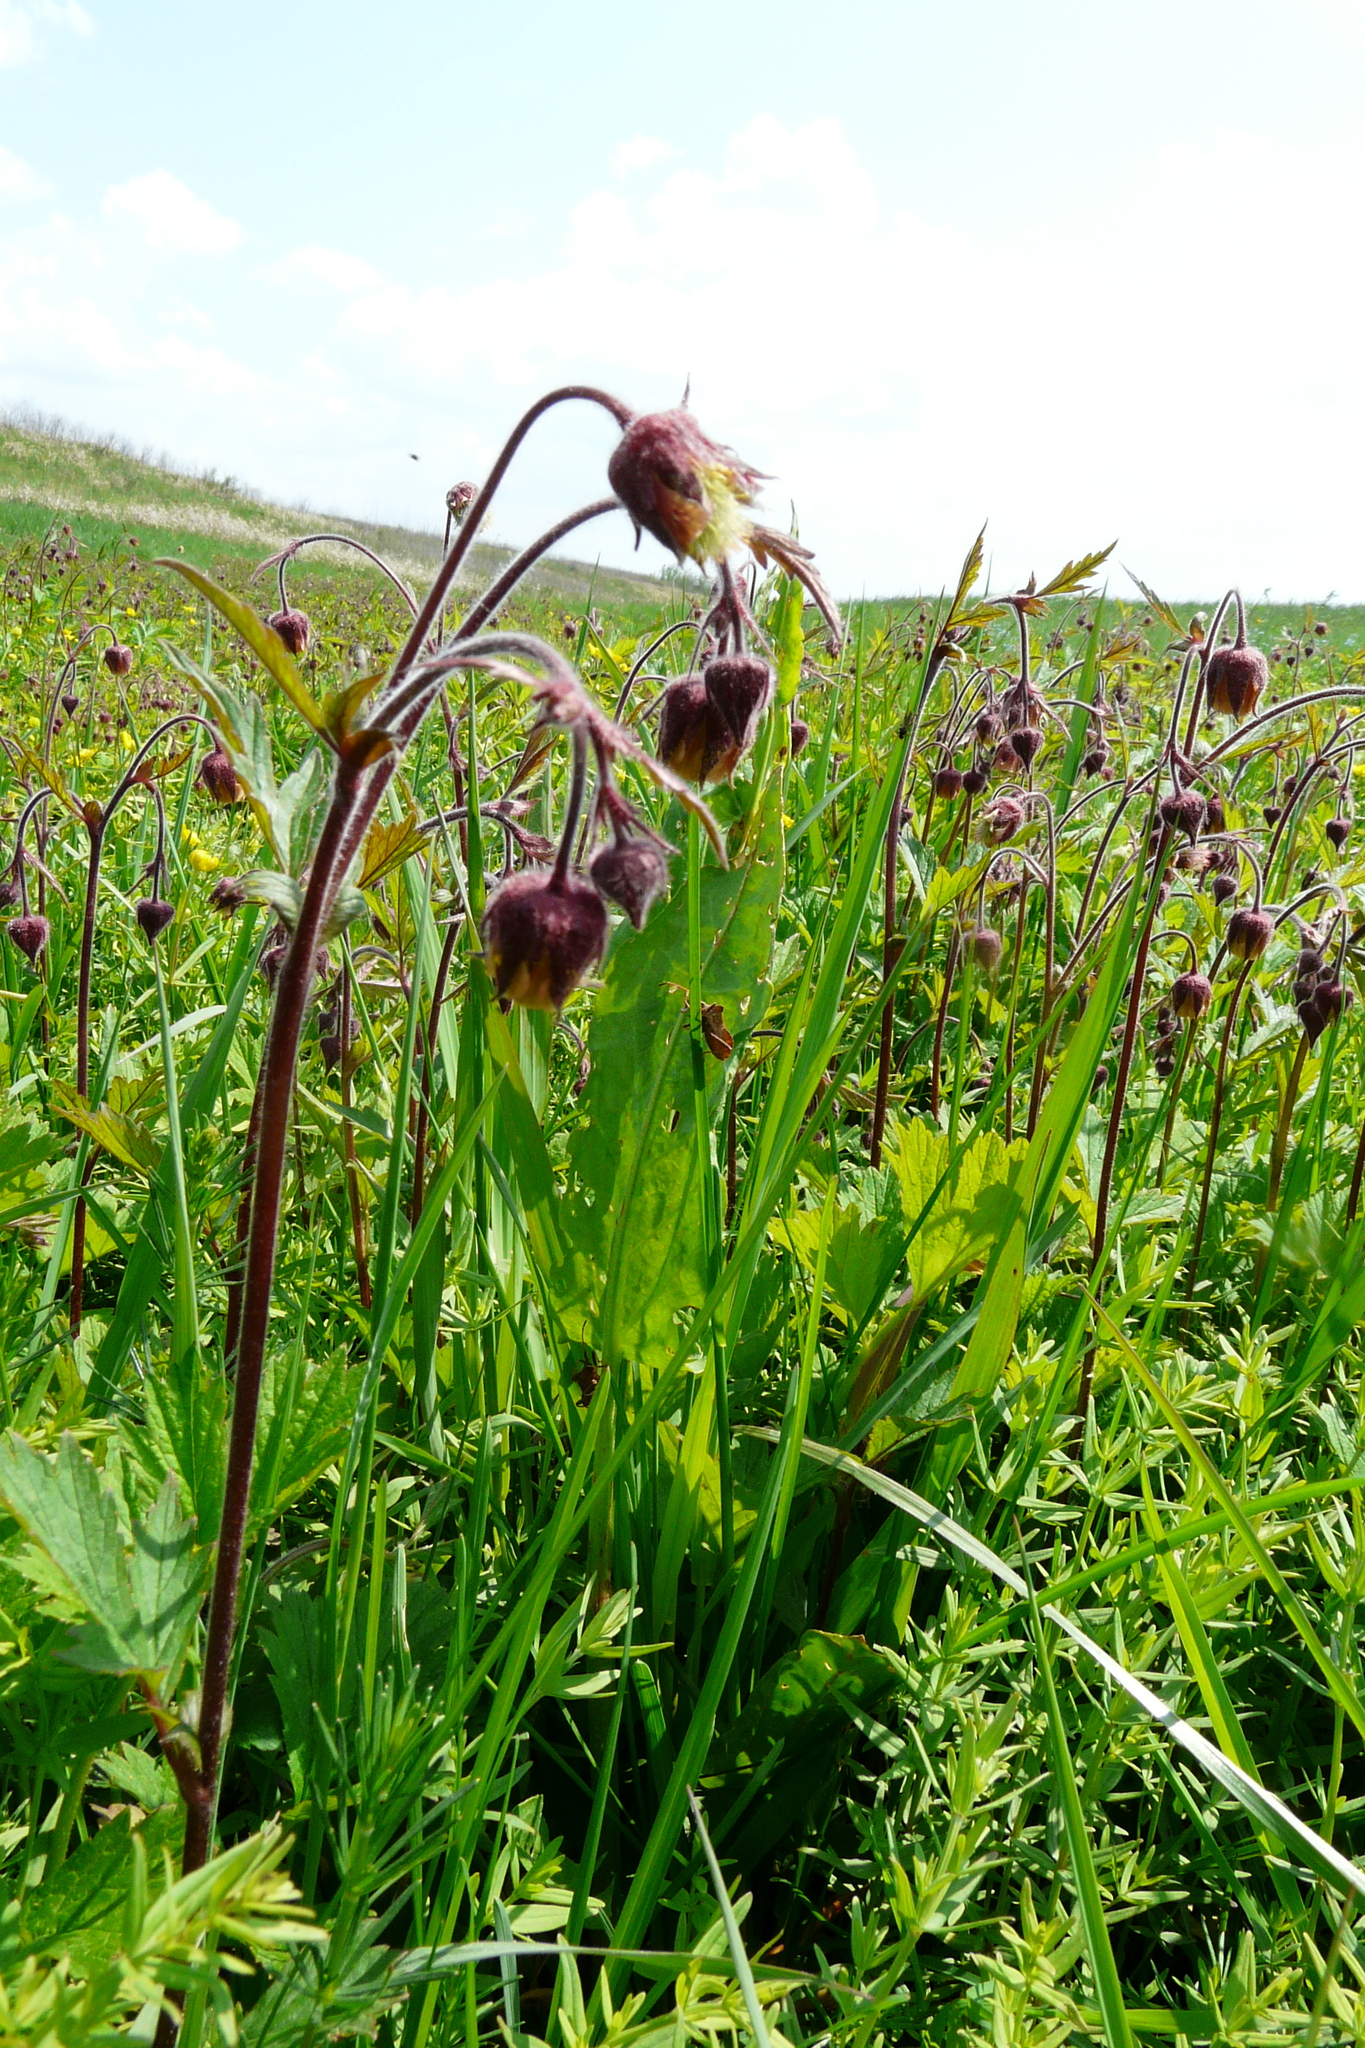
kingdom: Plantae
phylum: Tracheophyta
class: Magnoliopsida
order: Rosales
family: Rosaceae
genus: Geum
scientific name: Geum rivale
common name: Water avens
